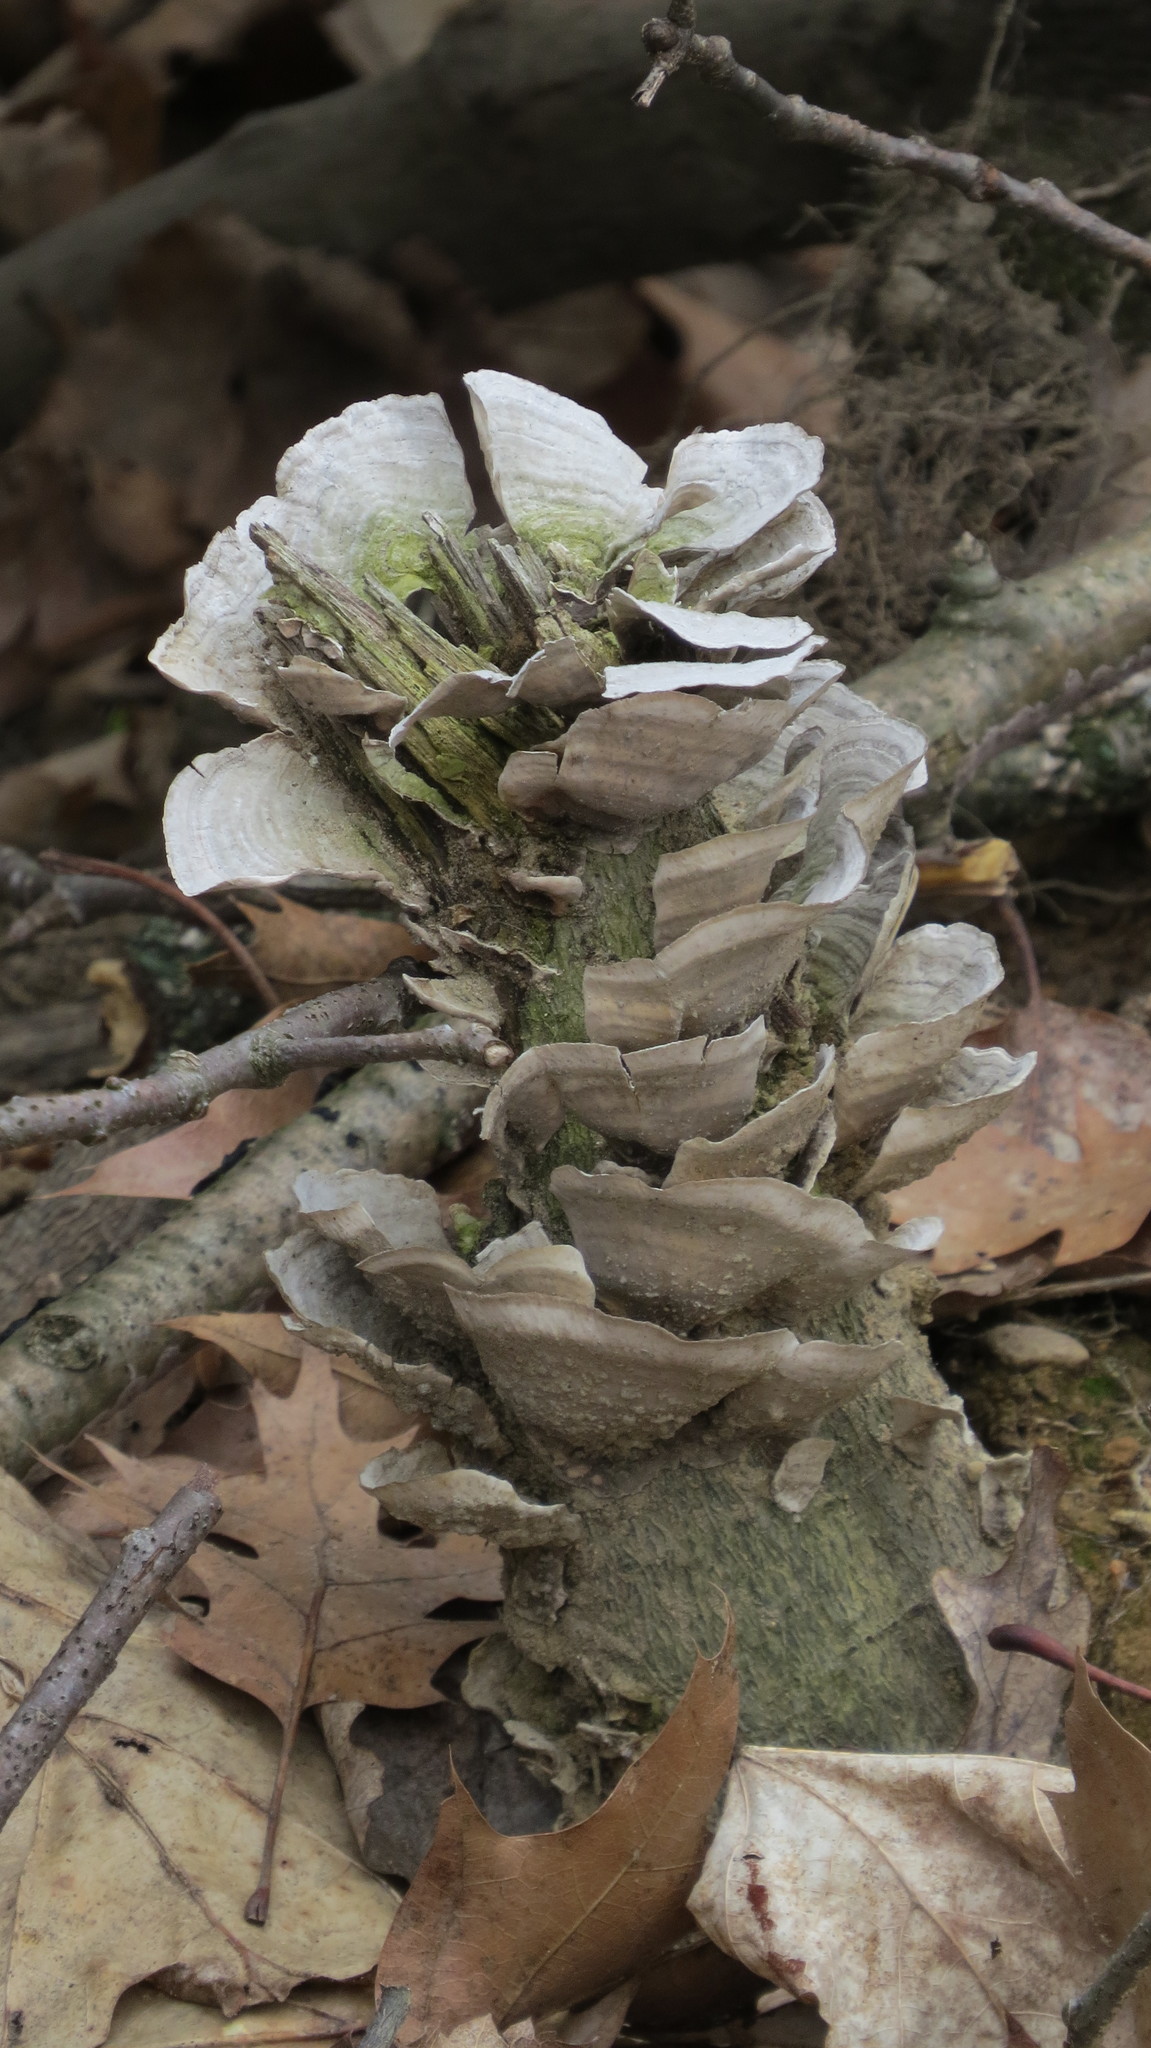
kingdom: Fungi
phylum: Basidiomycota
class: Agaricomycetes
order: Russulales
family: Stereaceae
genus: Stereum
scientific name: Stereum
